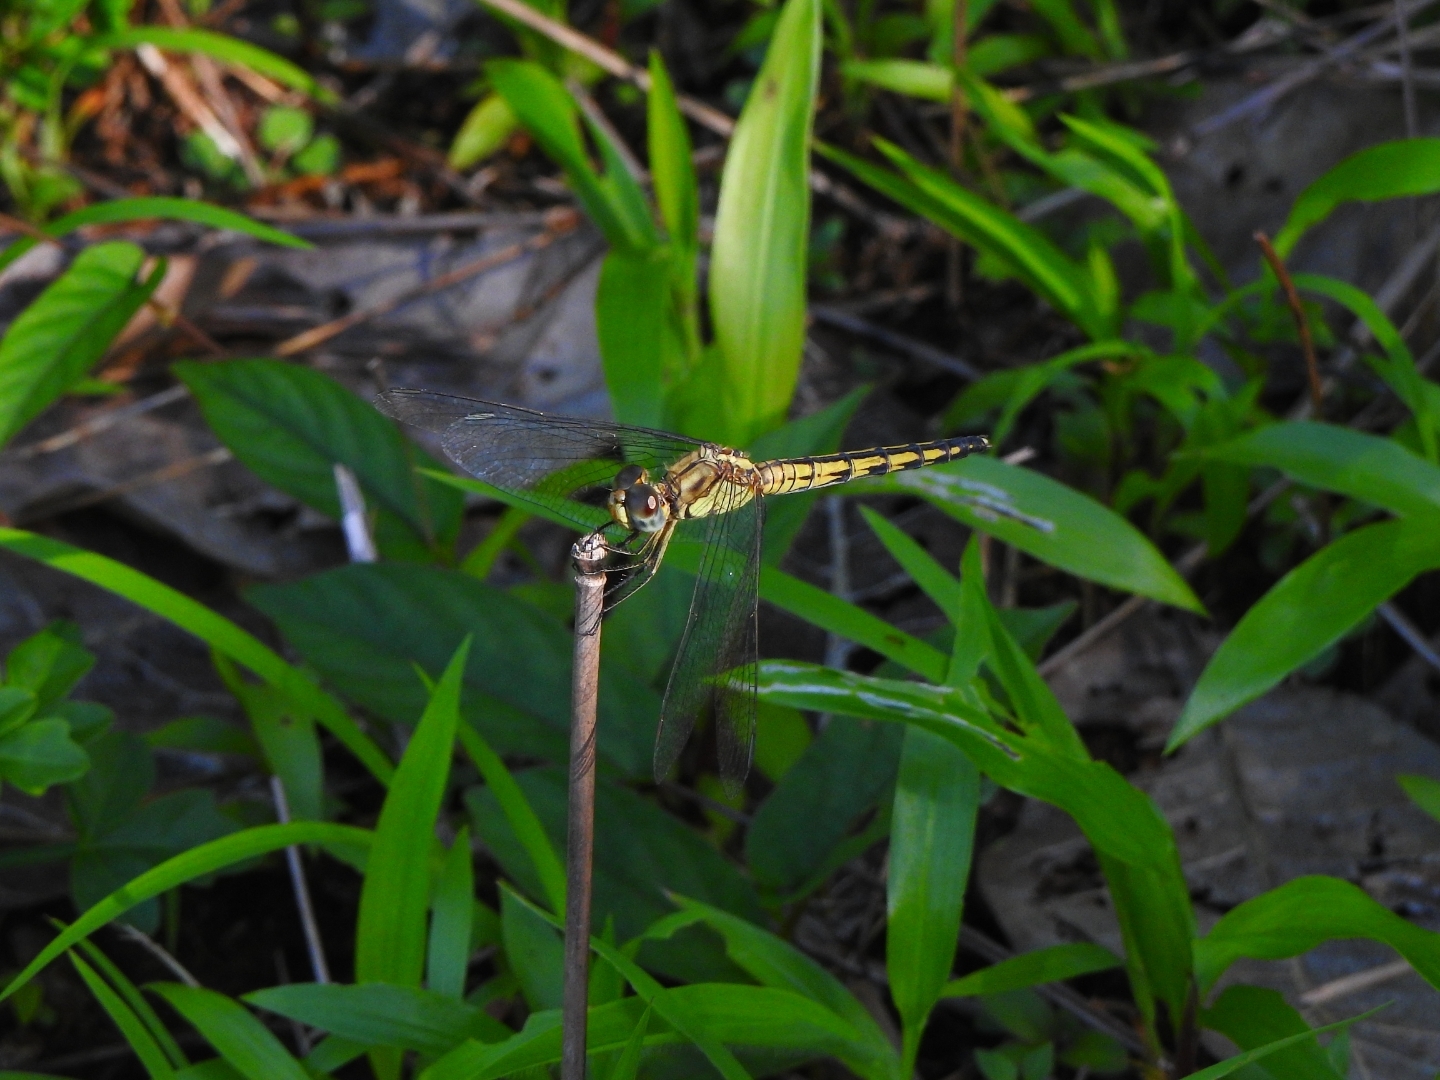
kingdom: Animalia
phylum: Arthropoda
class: Insecta
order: Odonata
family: Libellulidae
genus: Indothemis
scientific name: Indothemis carnatica
